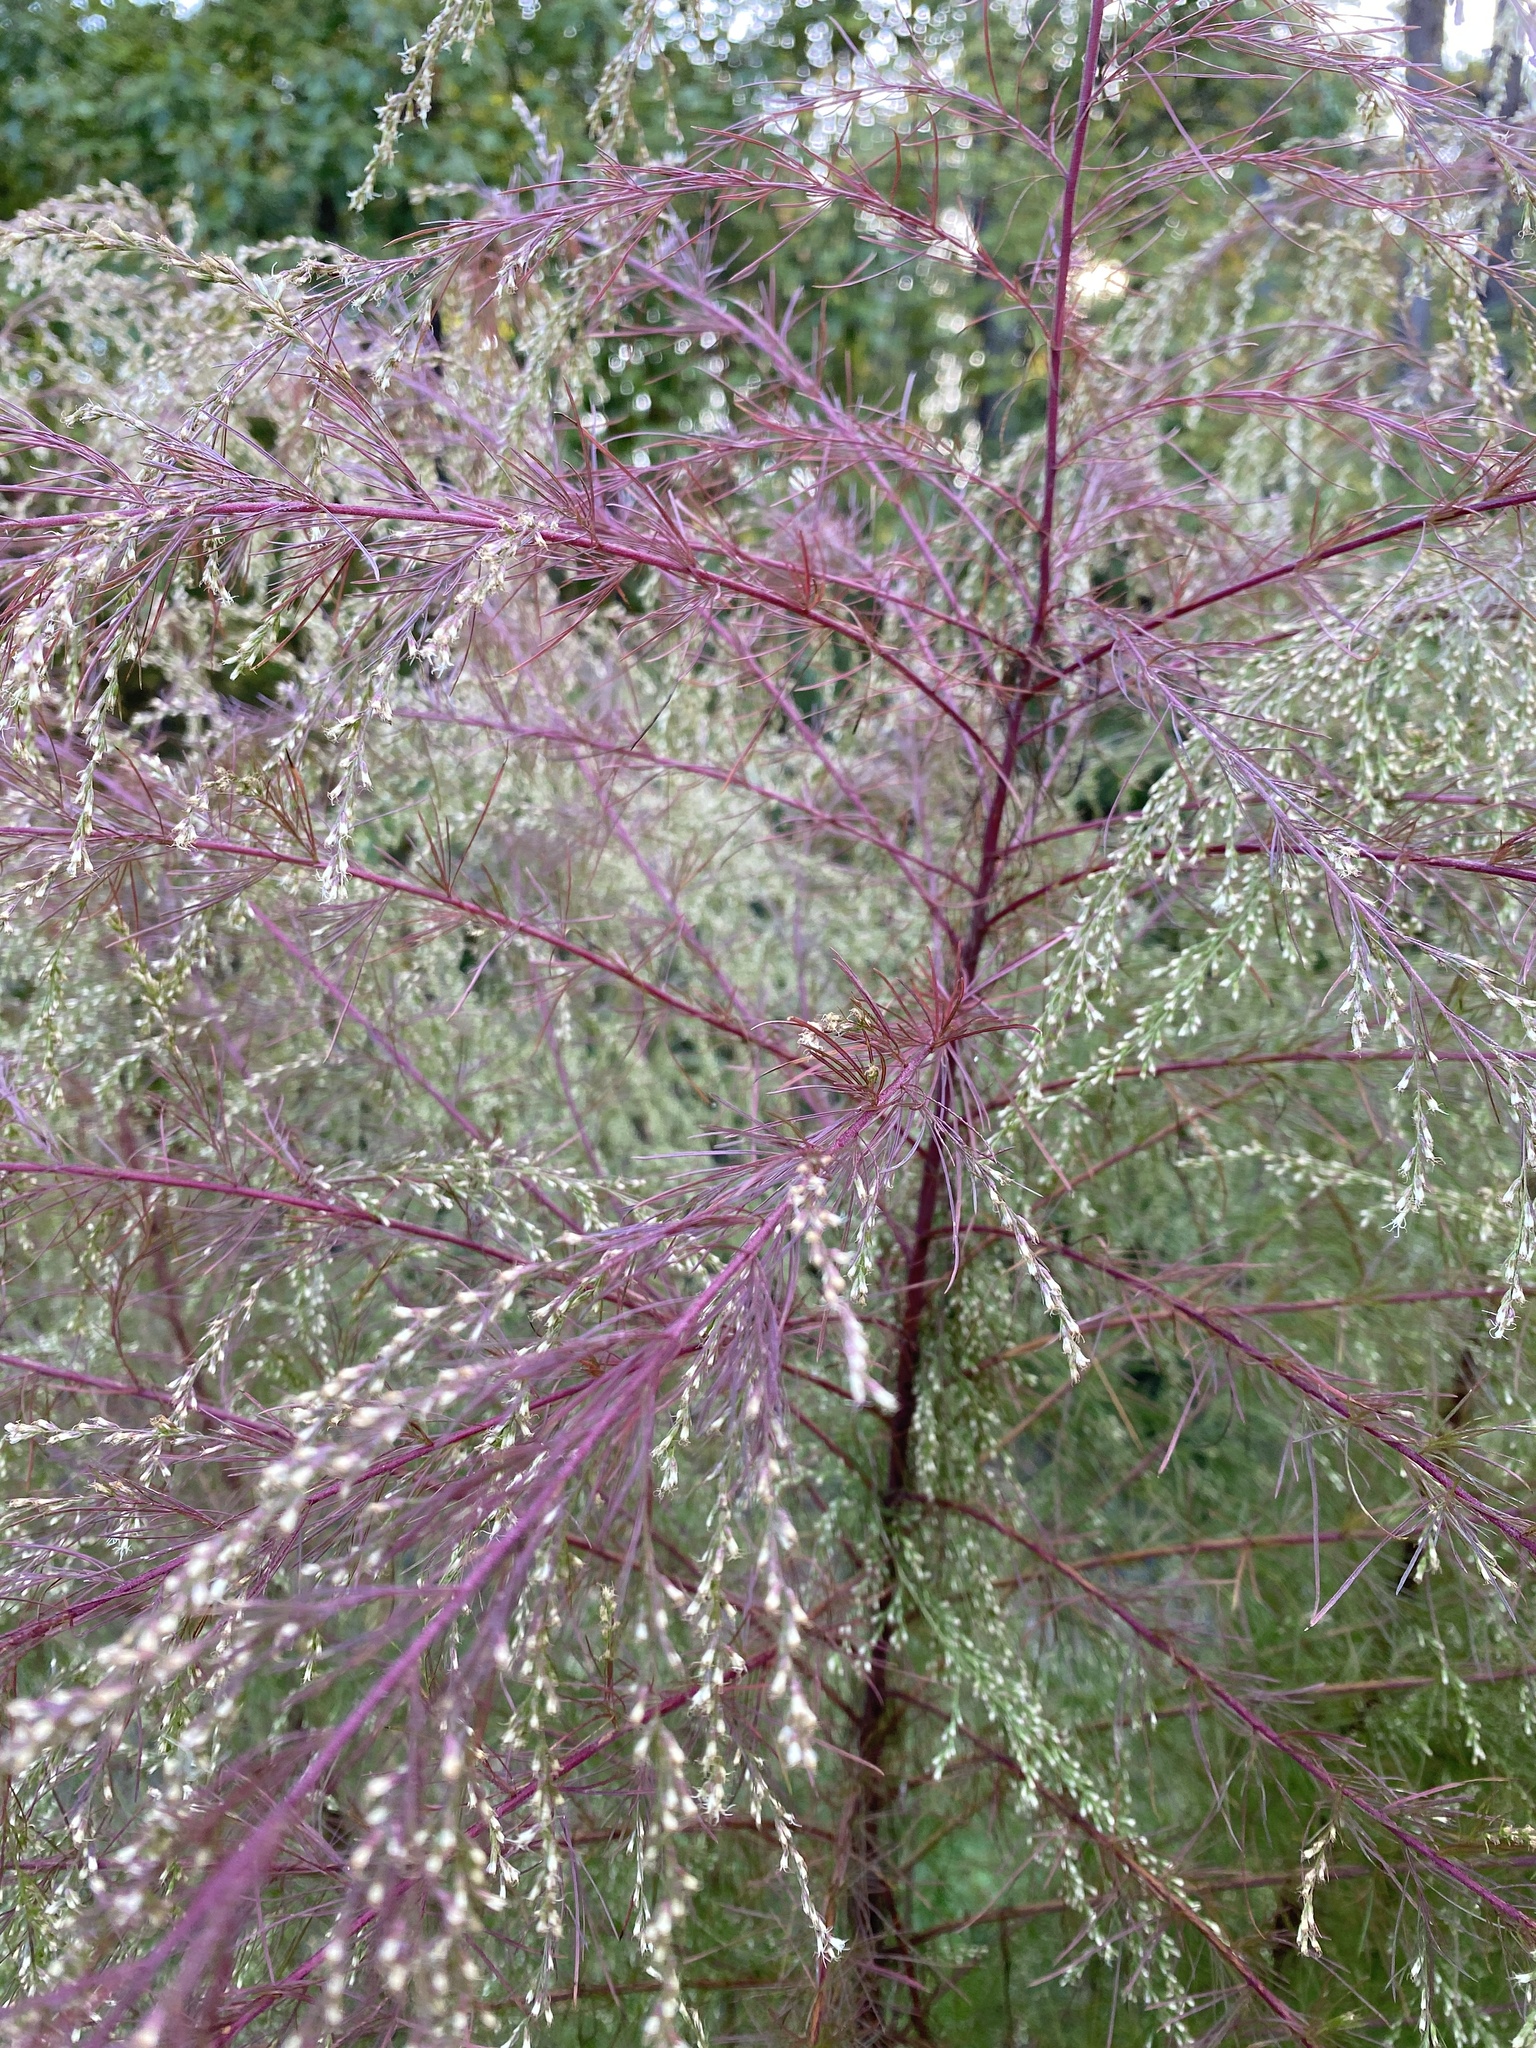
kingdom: Plantae
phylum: Tracheophyta
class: Magnoliopsida
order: Asterales
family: Asteraceae
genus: Eupatorium
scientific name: Eupatorium capillifolium
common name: Dog-fennel
